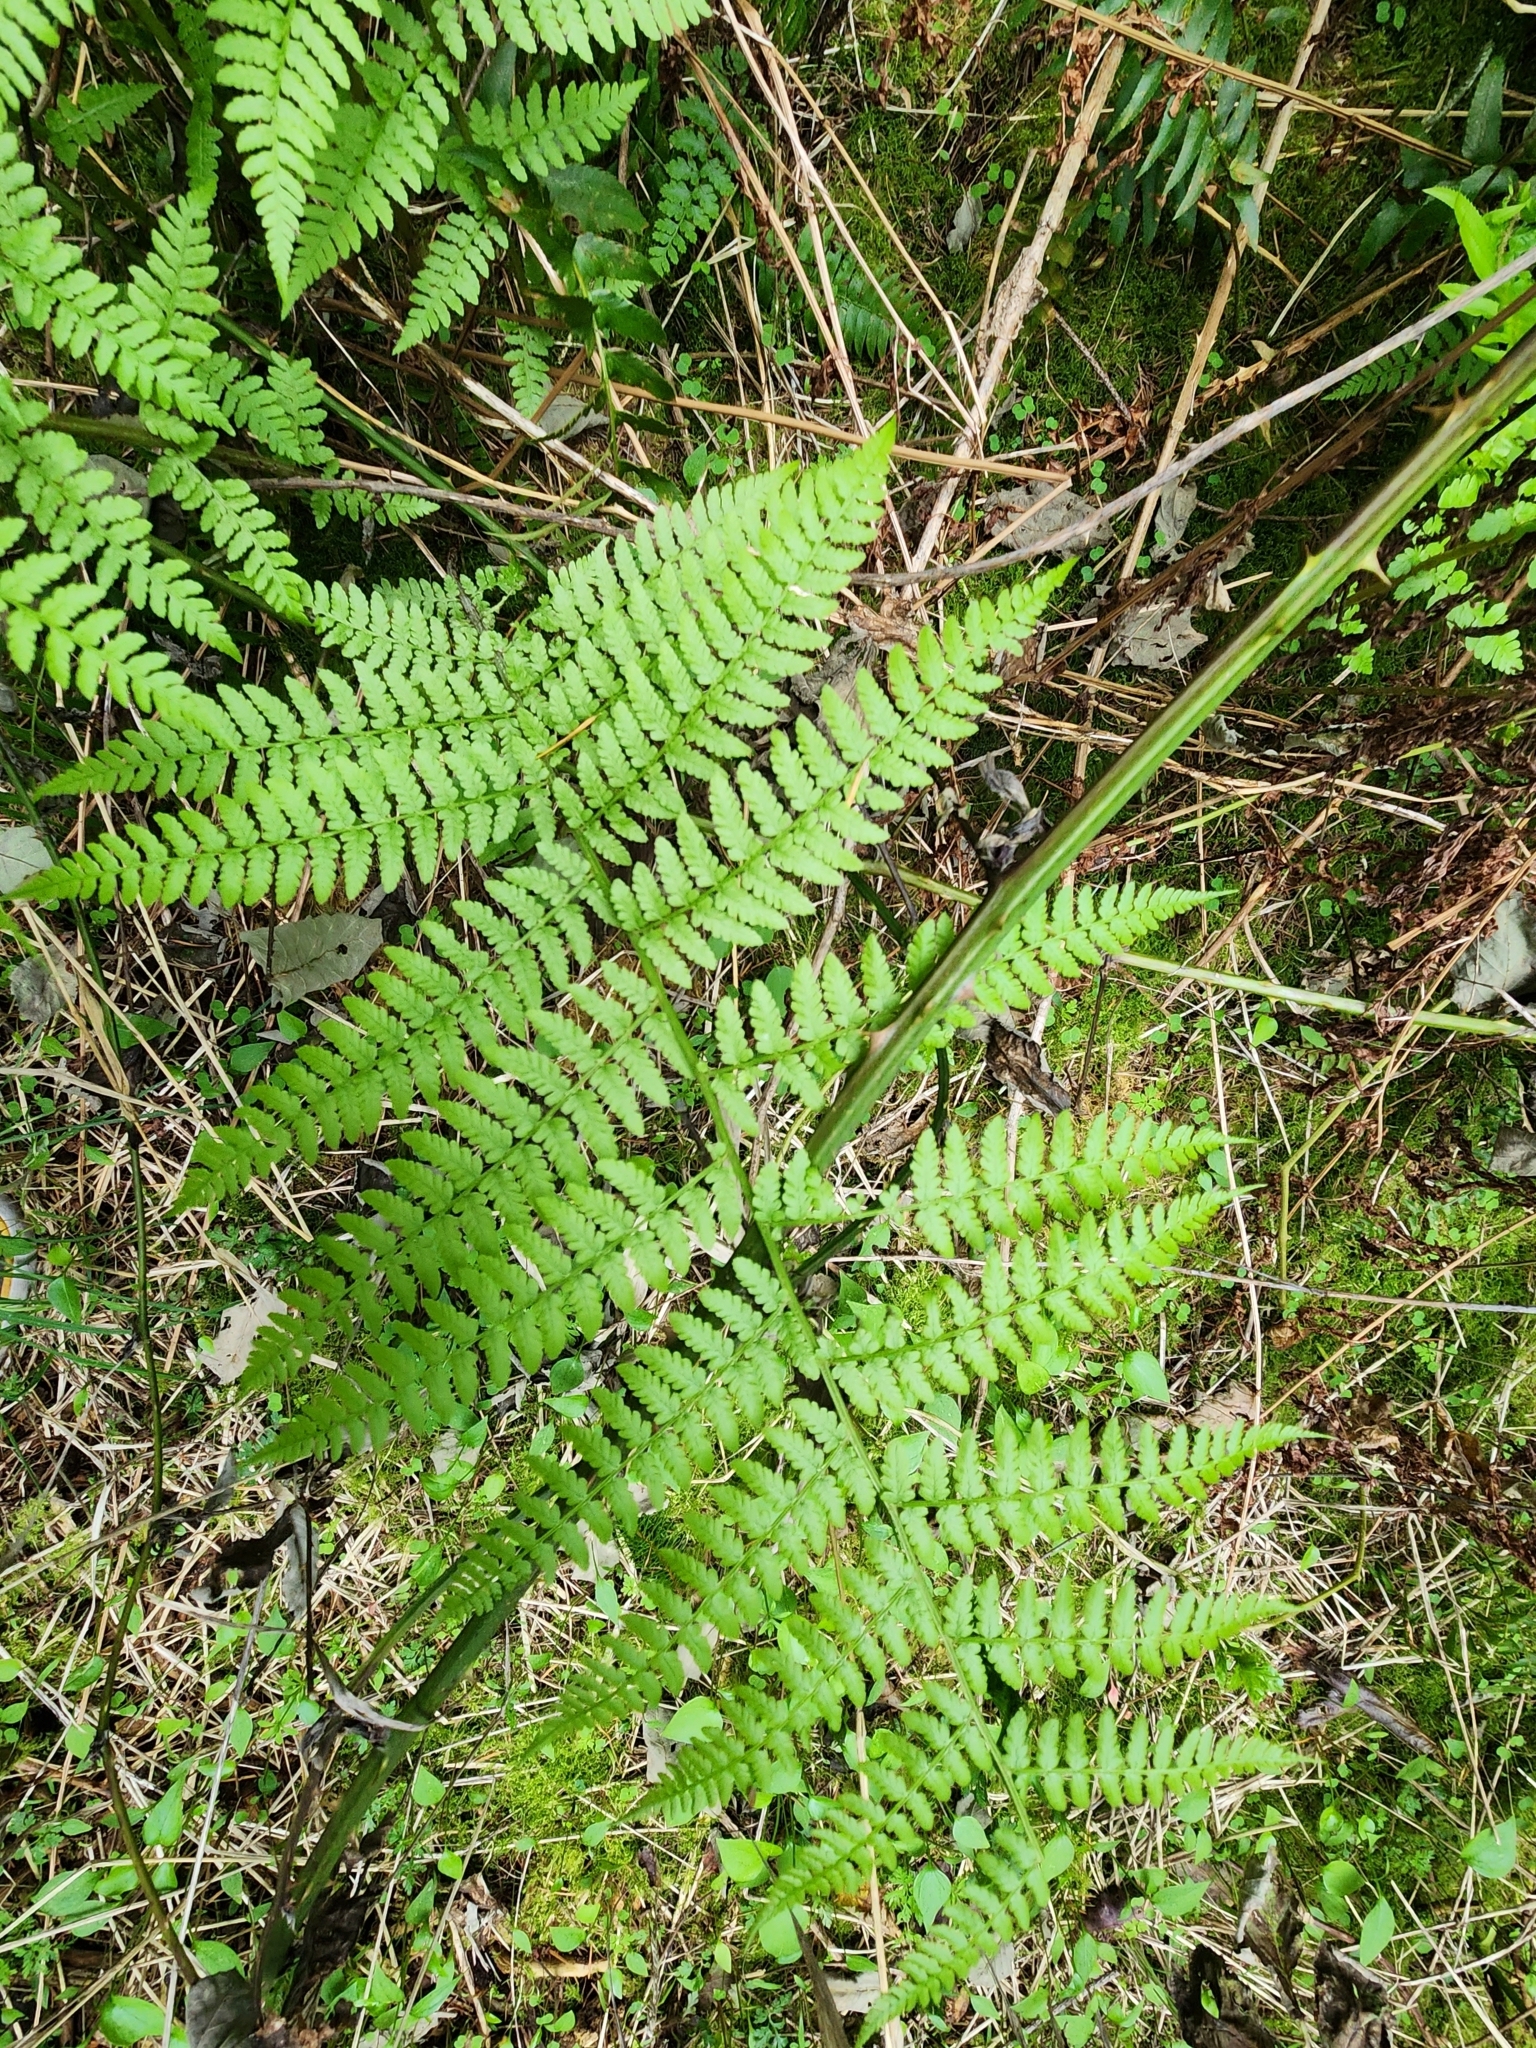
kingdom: Plantae
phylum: Tracheophyta
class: Polypodiopsida
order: Polypodiales
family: Athyriaceae
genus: Athyrium
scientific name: Athyrium filix-femina
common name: Lady fern
